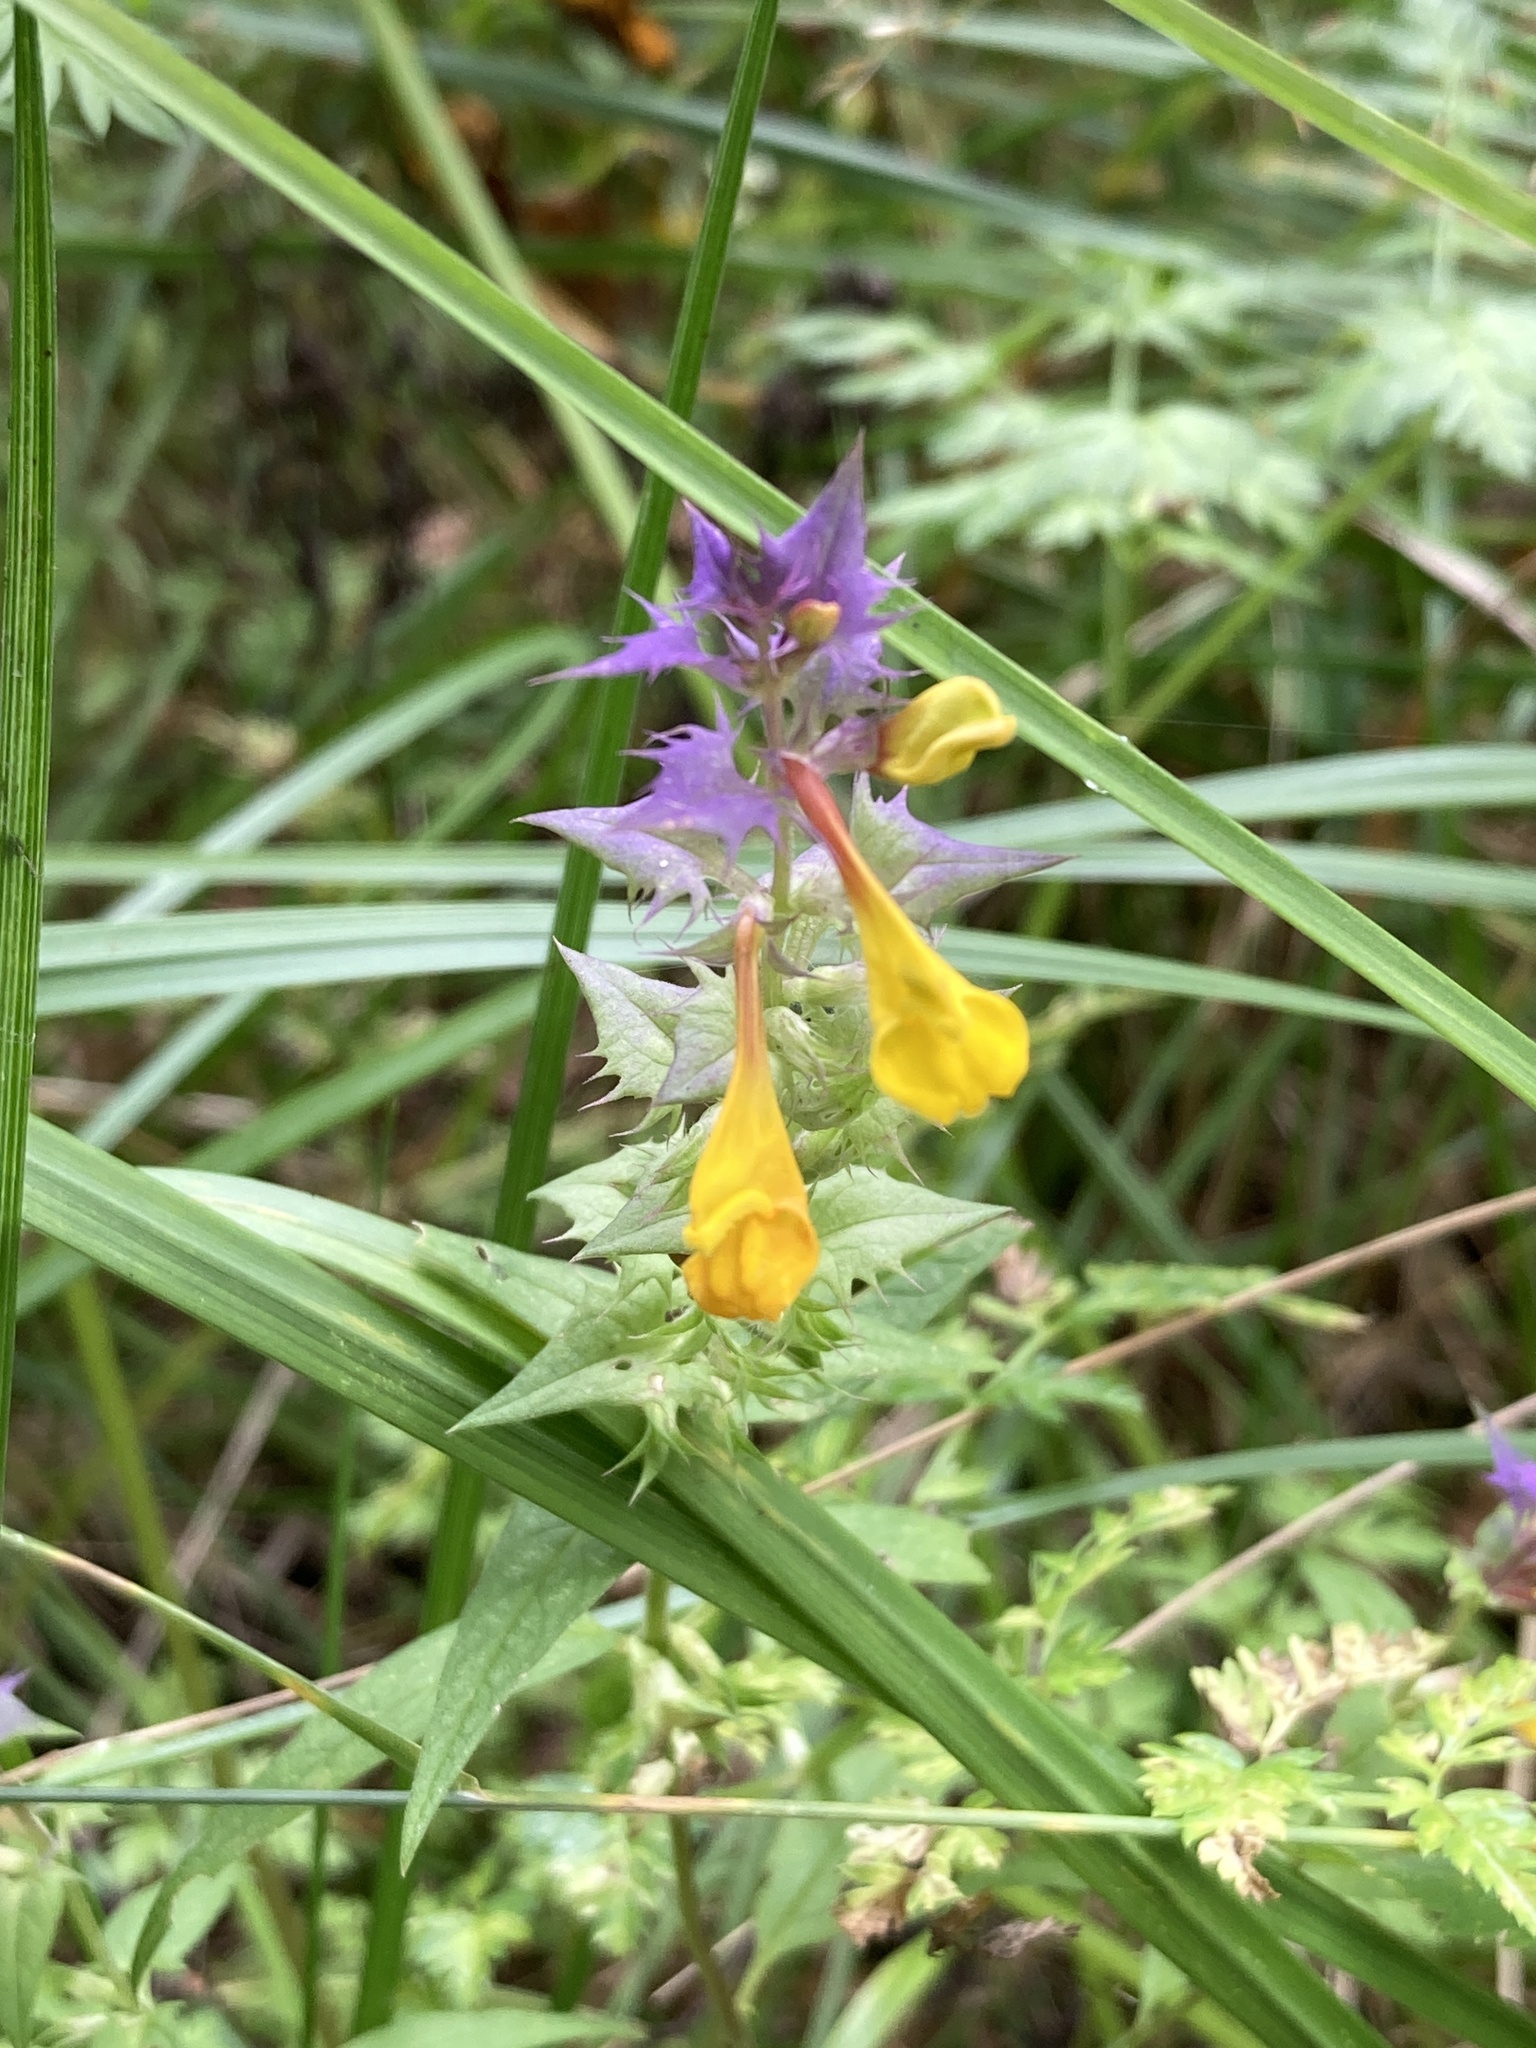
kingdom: Plantae
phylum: Tracheophyta
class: Magnoliopsida
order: Lamiales
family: Orobanchaceae
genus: Melampyrum
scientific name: Melampyrum nemorosum
